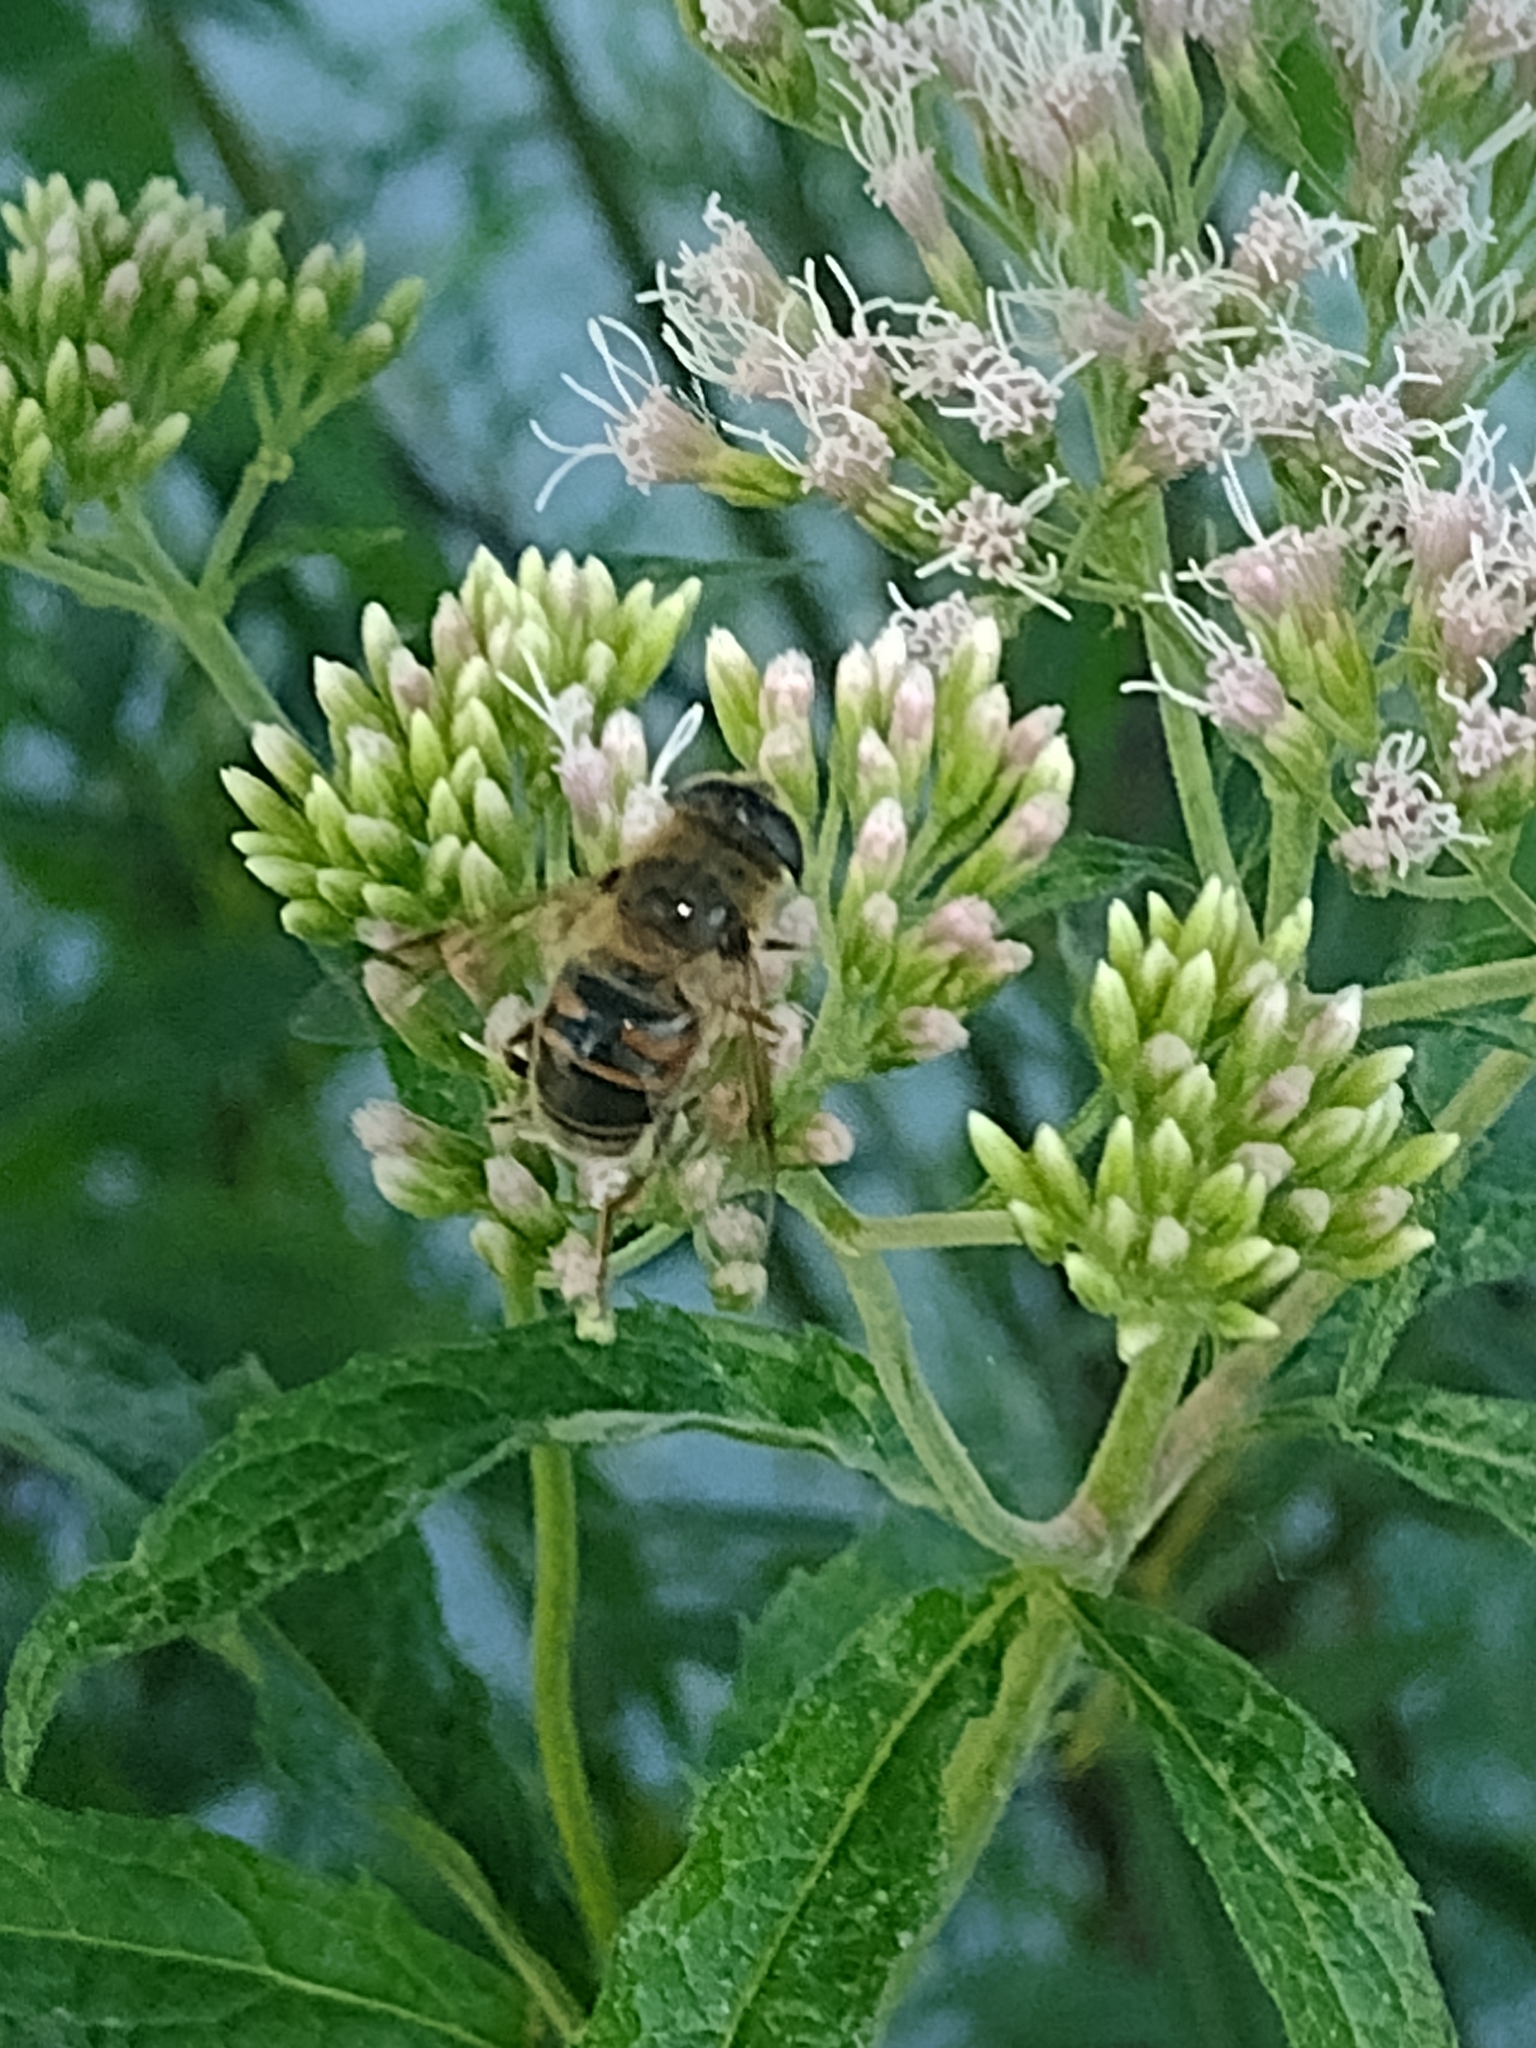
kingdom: Animalia
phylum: Arthropoda
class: Insecta
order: Diptera
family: Syrphidae
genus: Eristalis
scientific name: Eristalis tenax
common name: Drone fly
